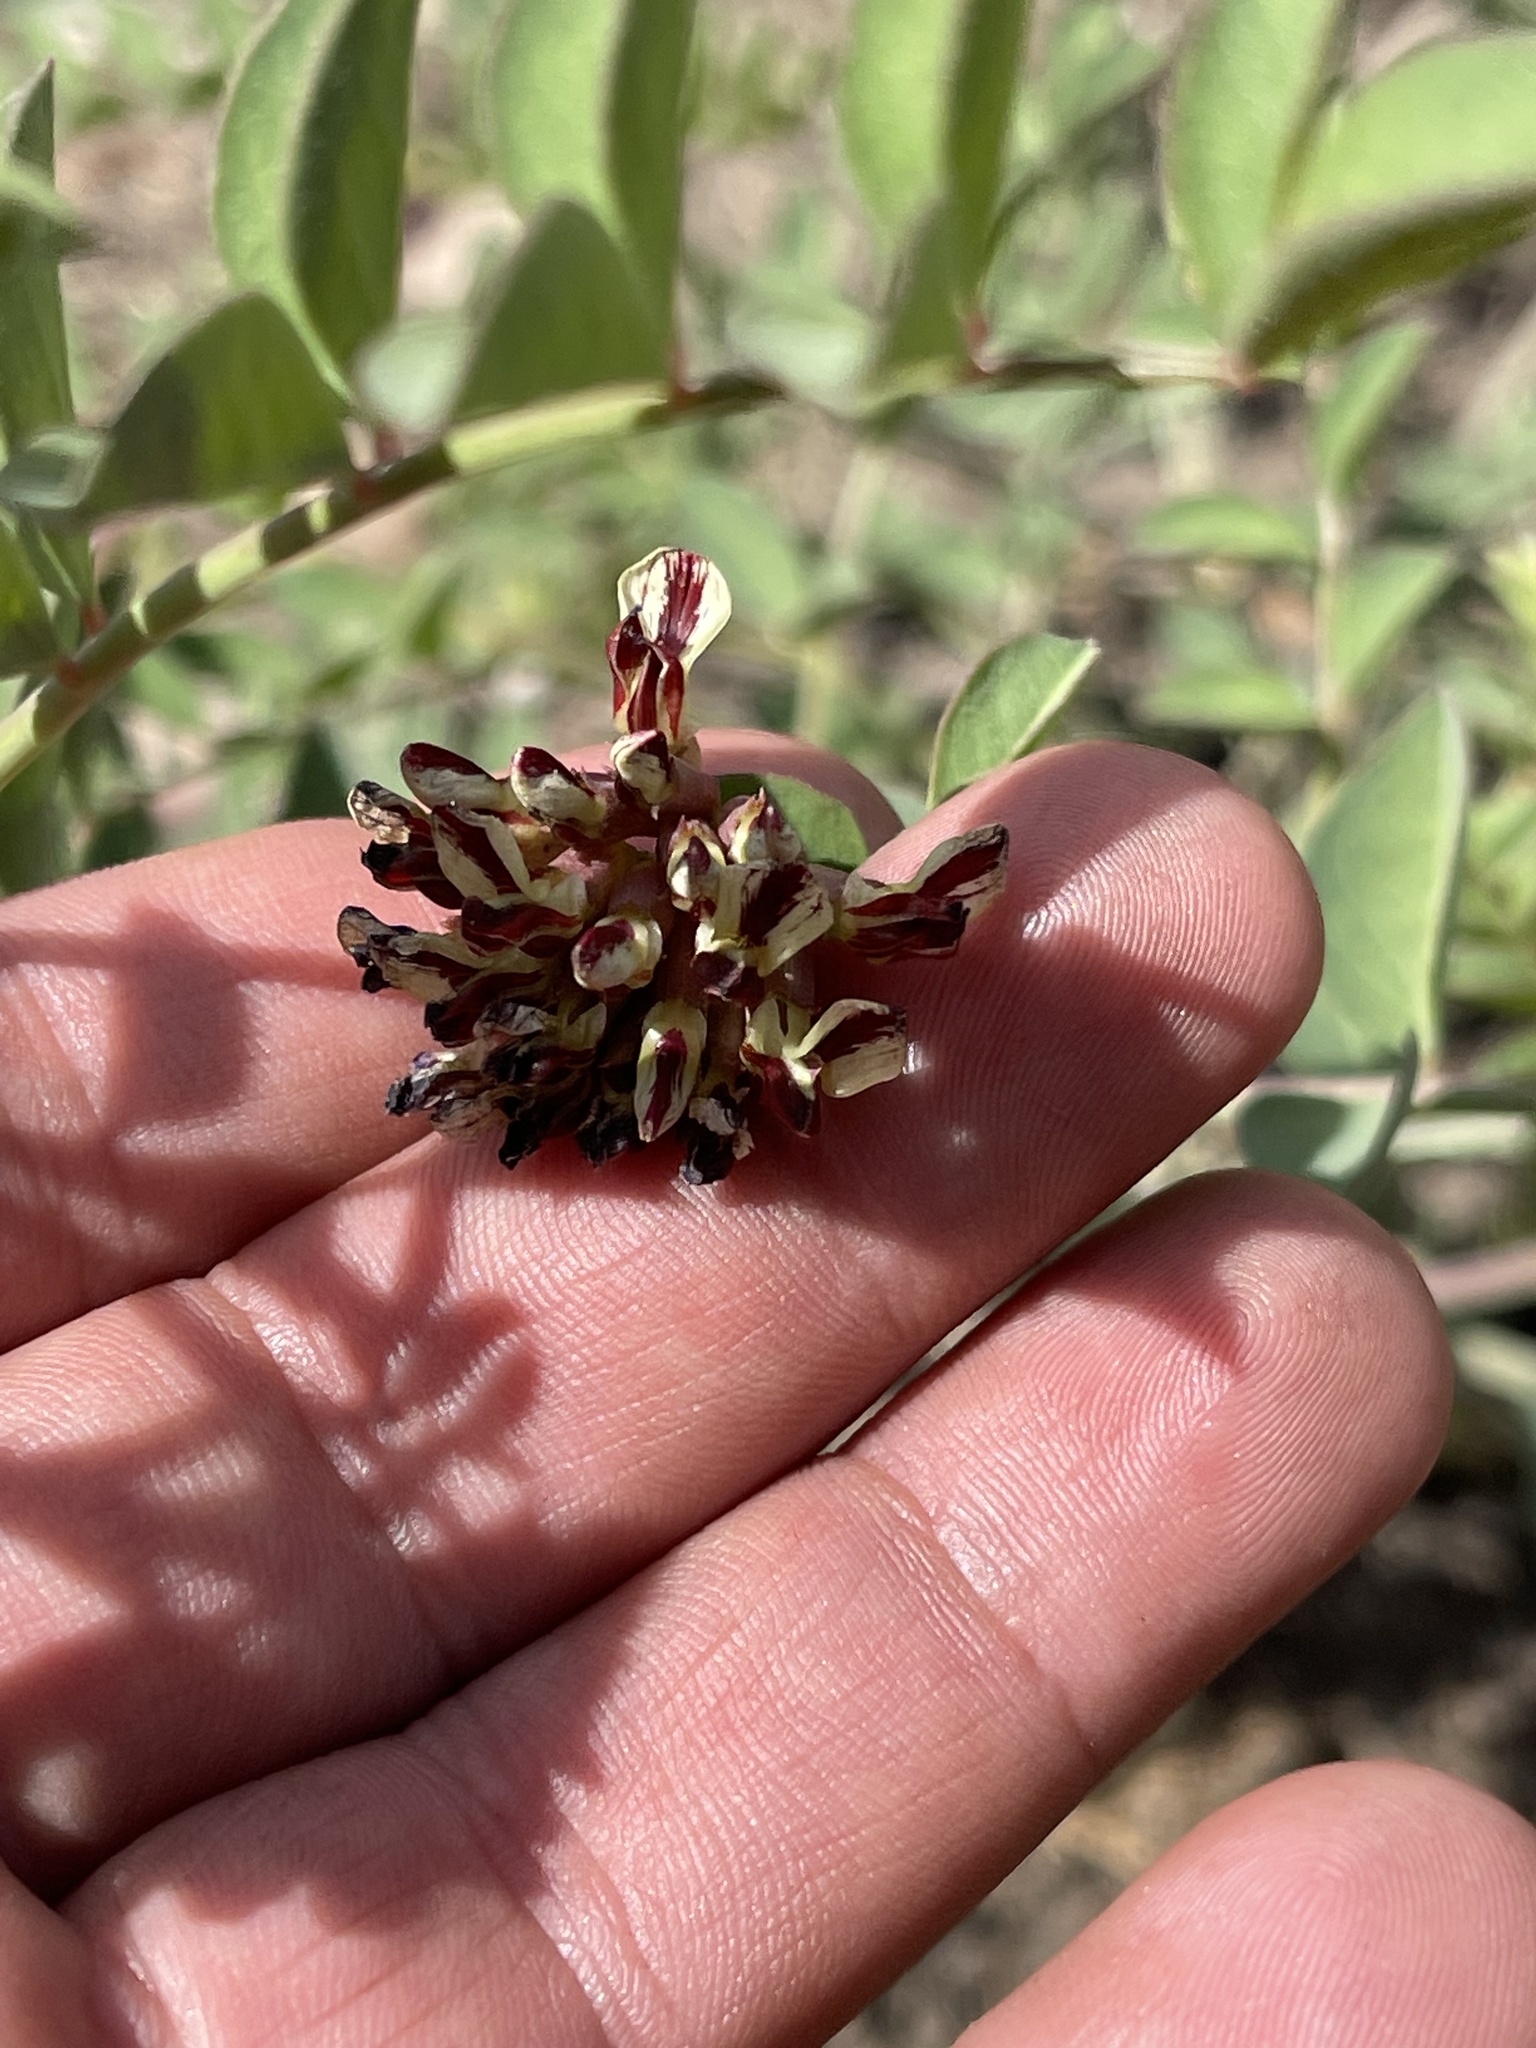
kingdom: Plantae
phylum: Tracheophyta
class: Magnoliopsida
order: Fabales
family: Fabaceae
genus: Hosackia
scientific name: Hosackia crassifolia
